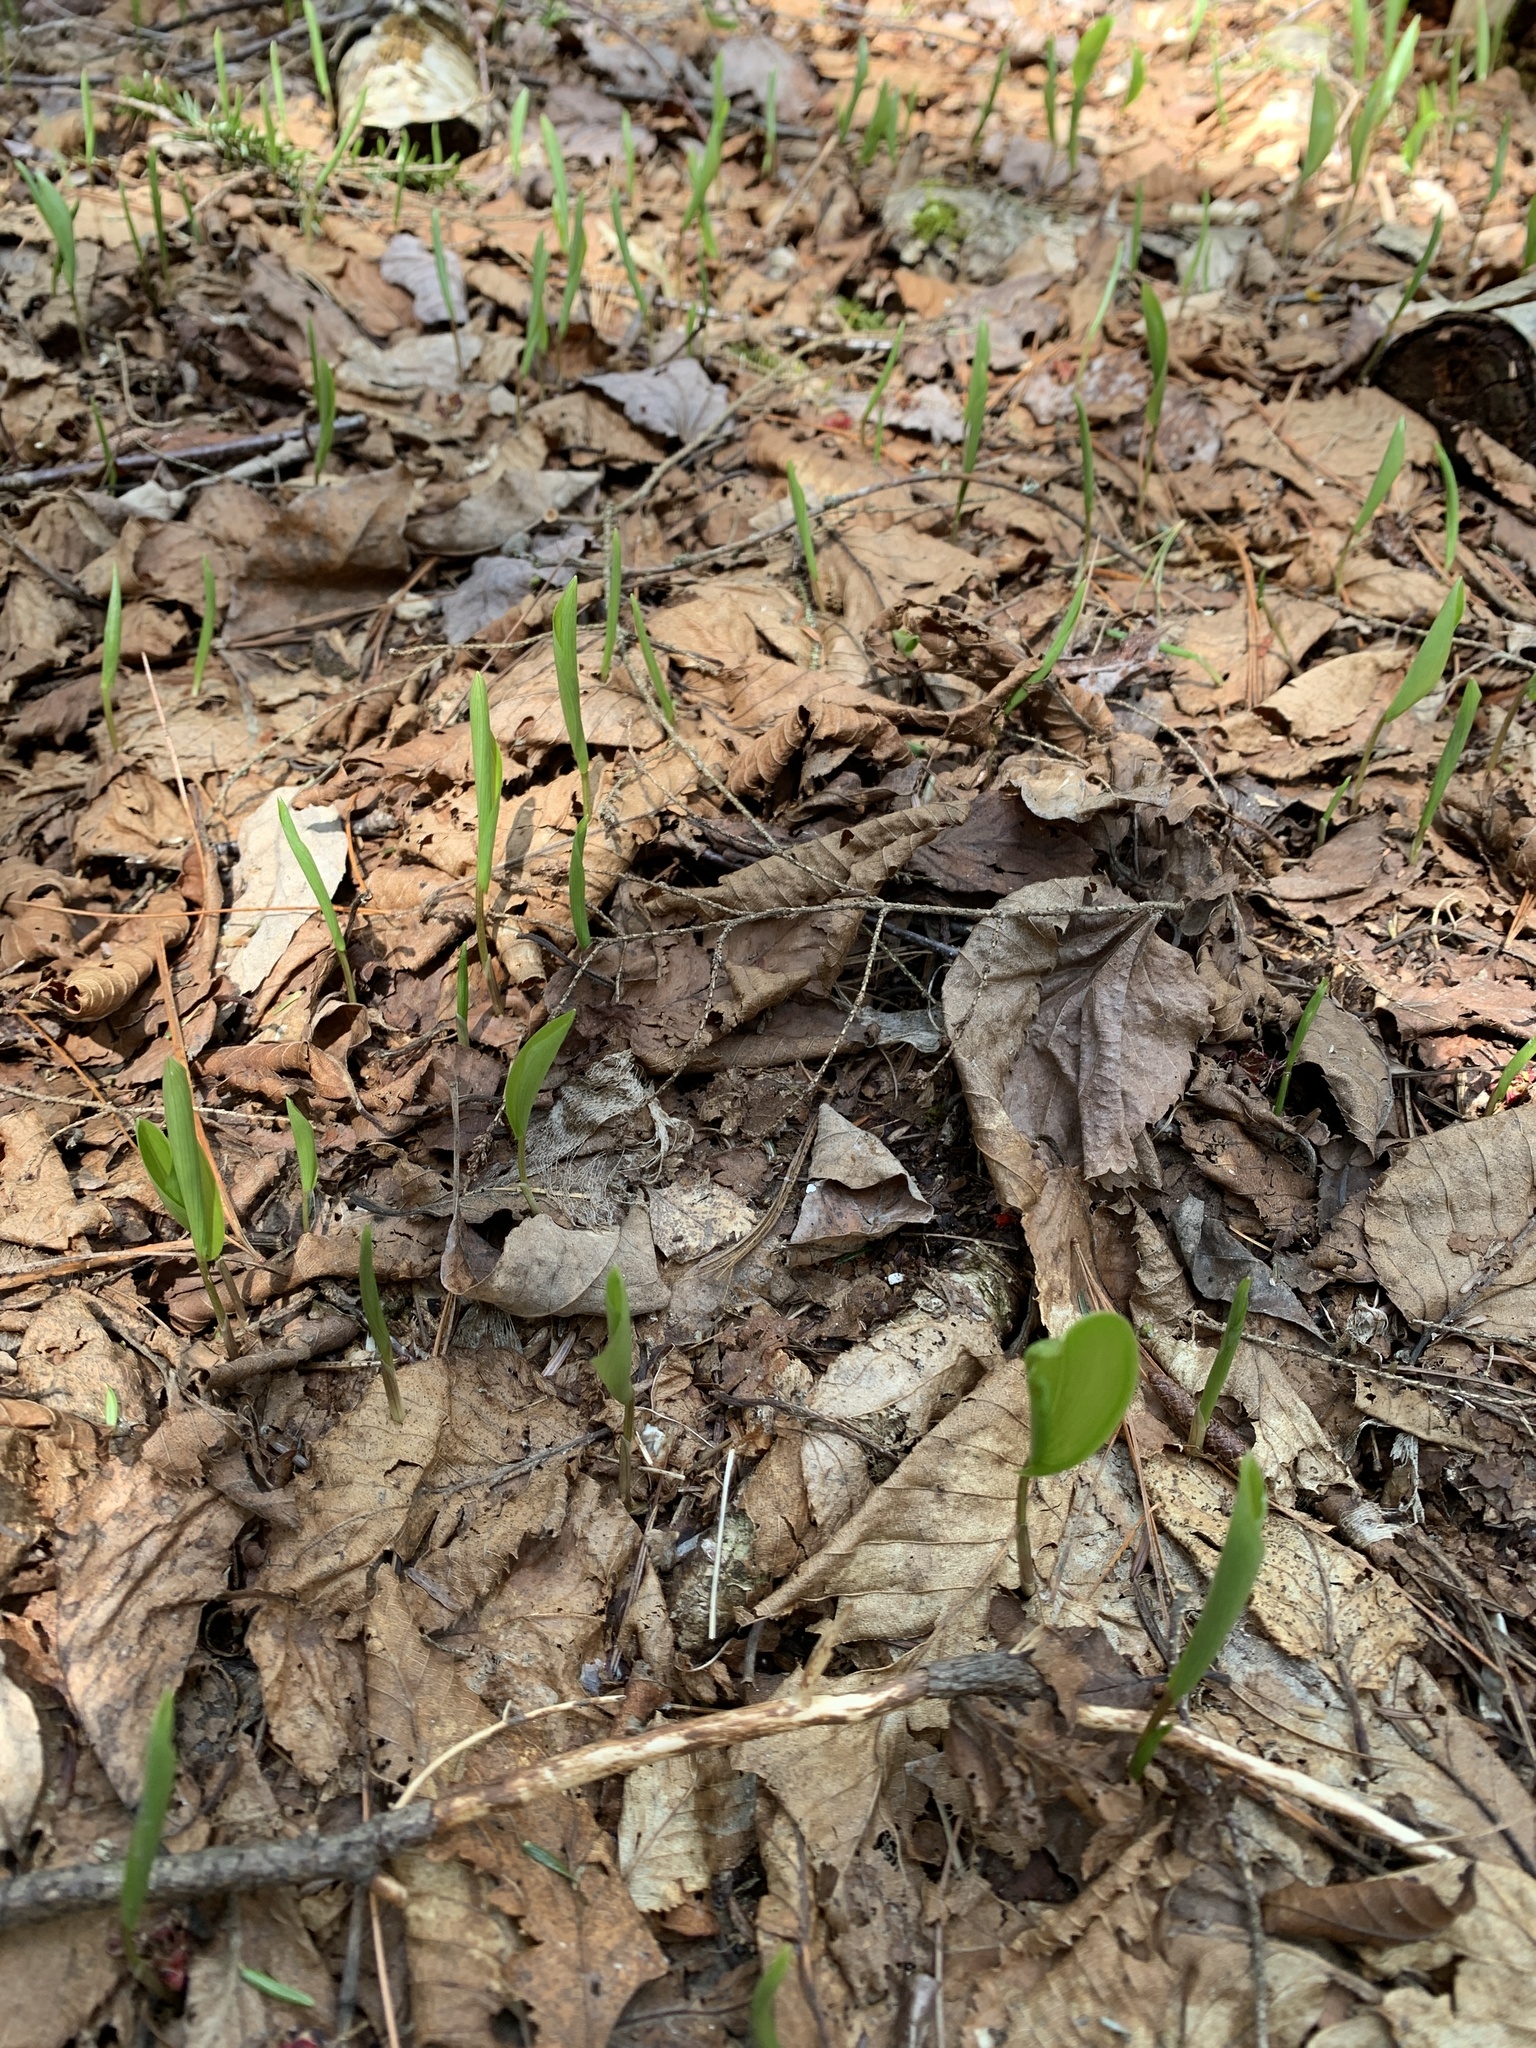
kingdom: Plantae
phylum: Tracheophyta
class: Liliopsida
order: Asparagales
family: Asparagaceae
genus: Maianthemum
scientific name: Maianthemum canadense
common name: False lily-of-the-valley
